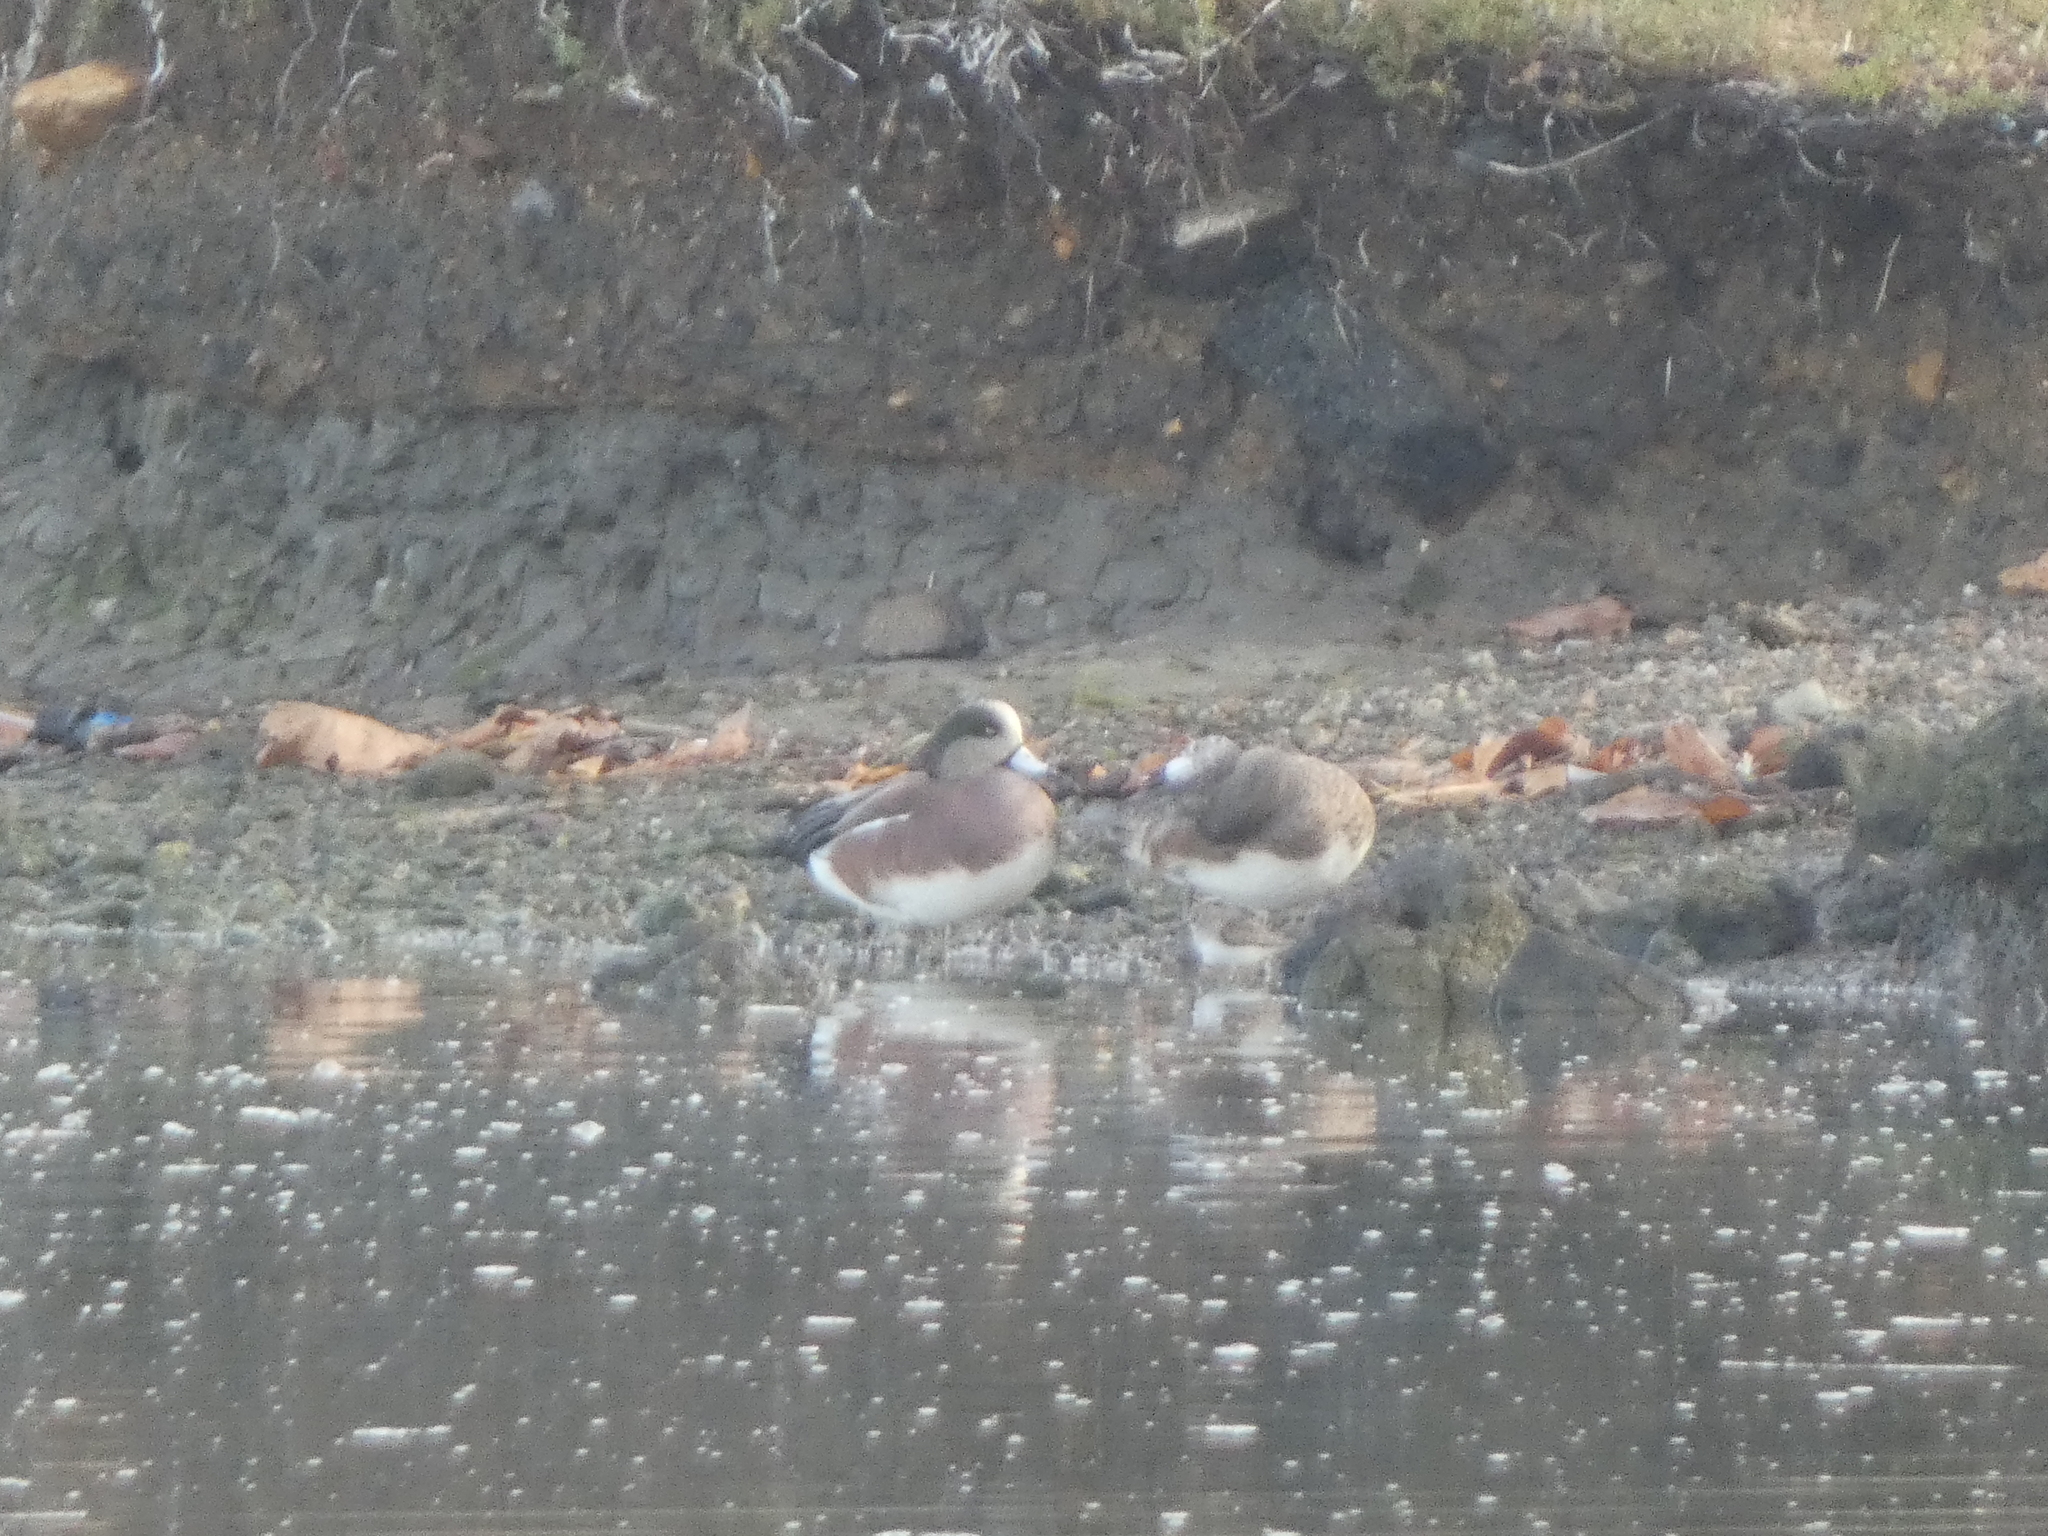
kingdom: Animalia
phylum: Chordata
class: Aves
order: Anseriformes
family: Anatidae
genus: Mareca
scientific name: Mareca americana
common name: American wigeon
